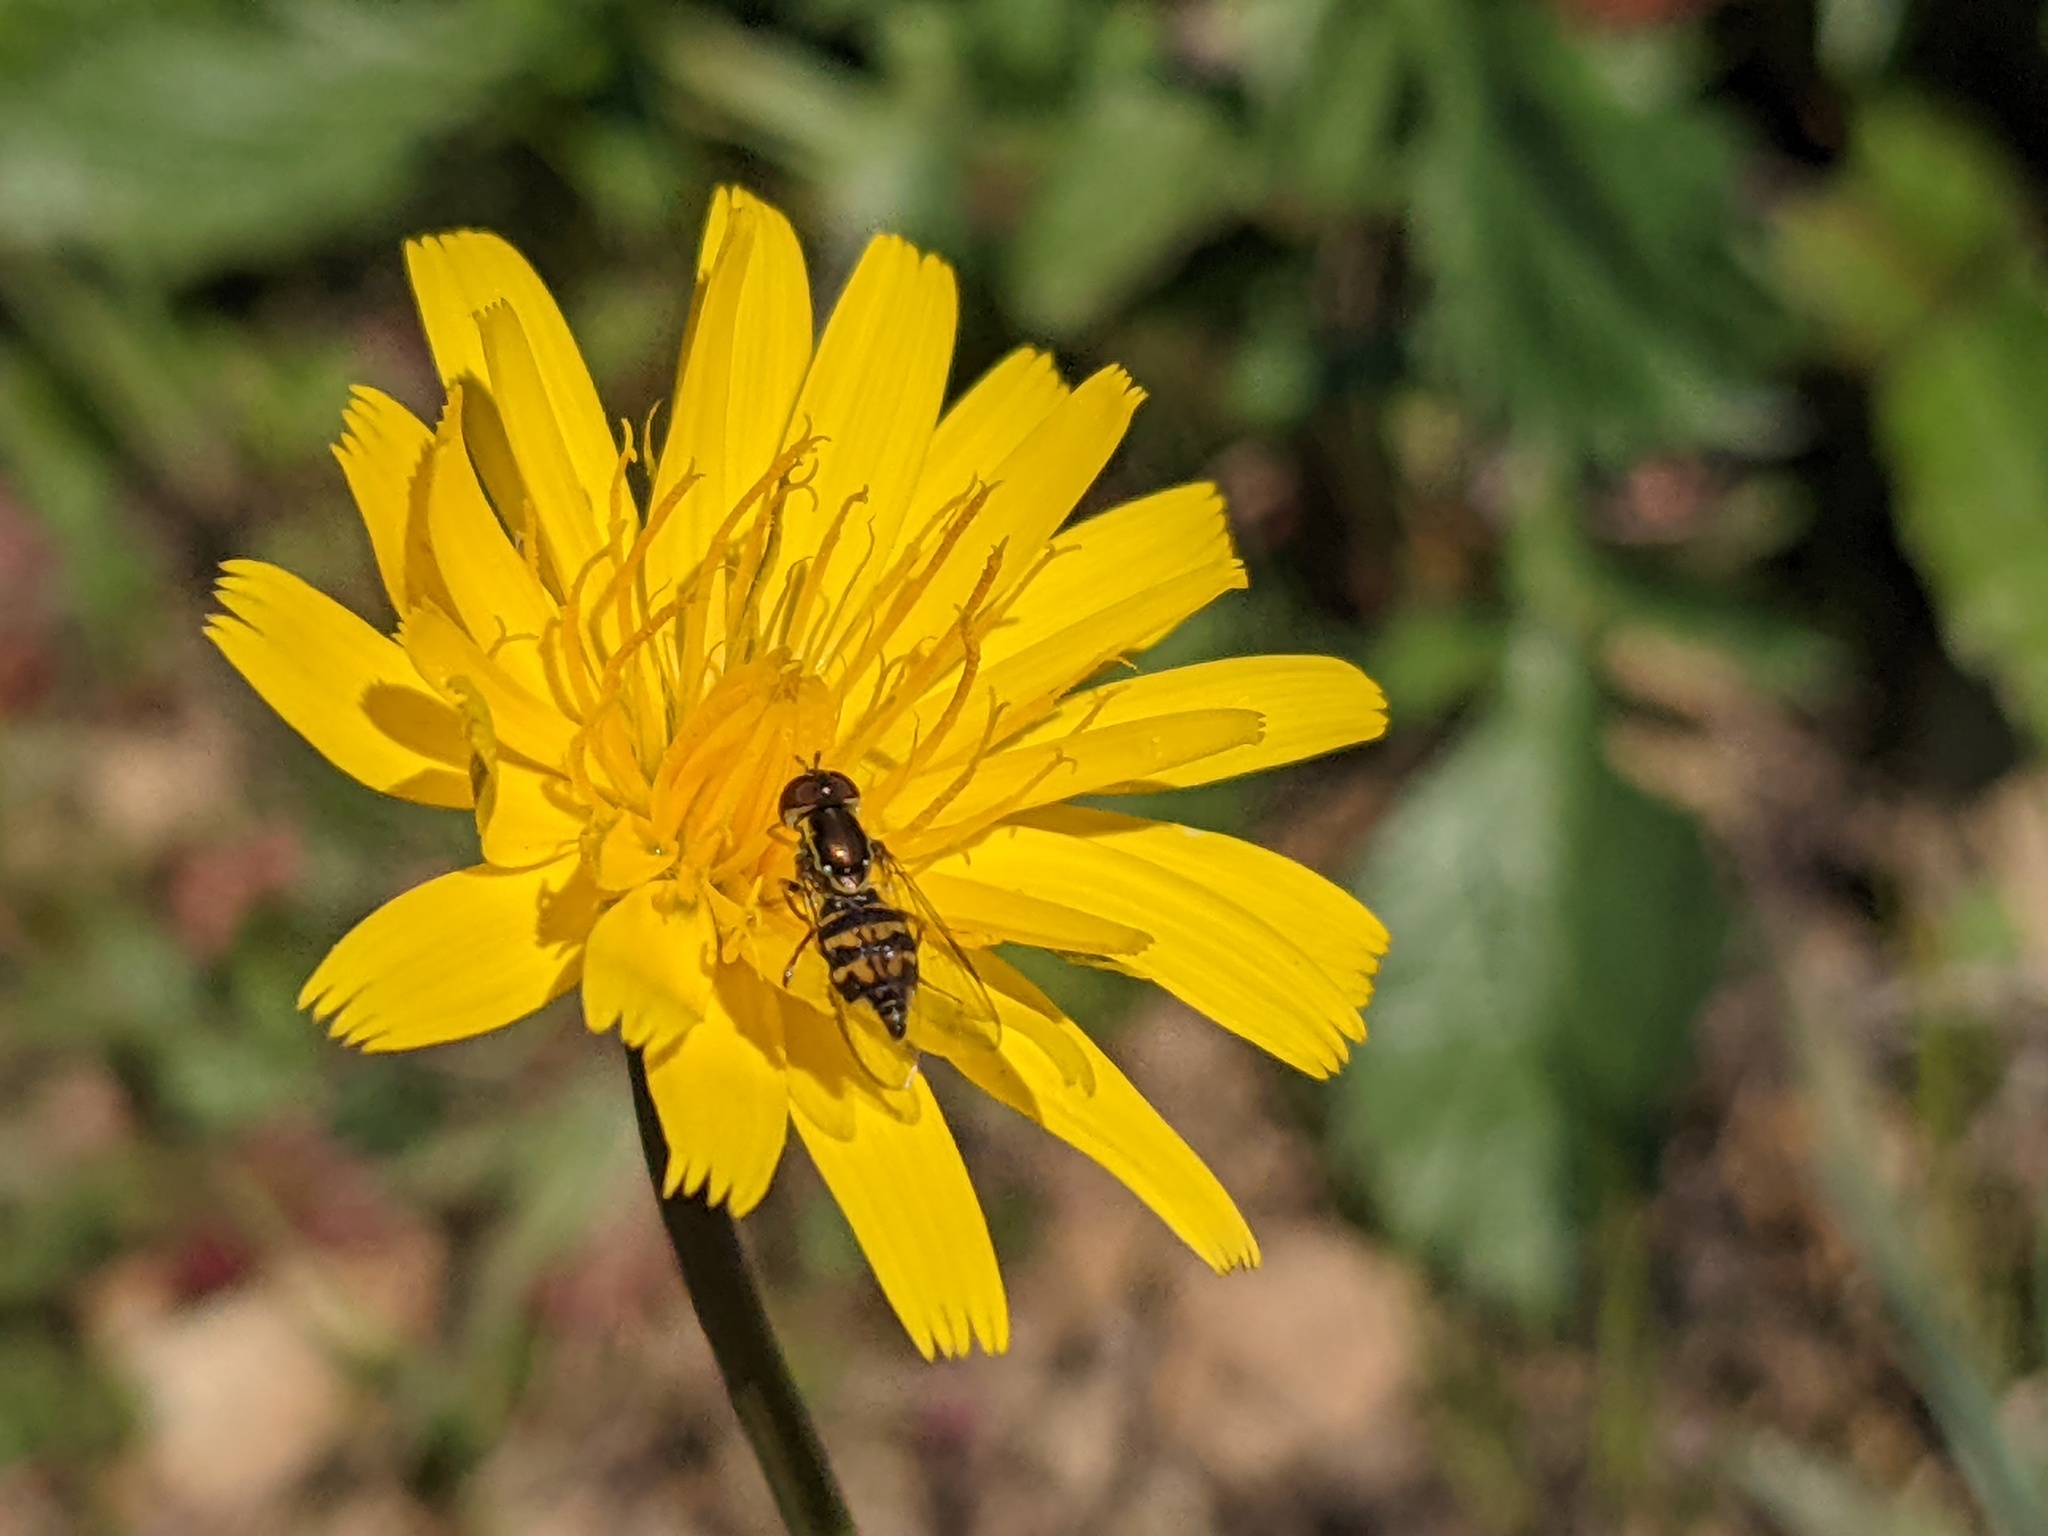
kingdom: Animalia
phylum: Arthropoda
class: Insecta
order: Diptera
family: Syrphidae
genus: Toxomerus
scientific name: Toxomerus occidentalis
